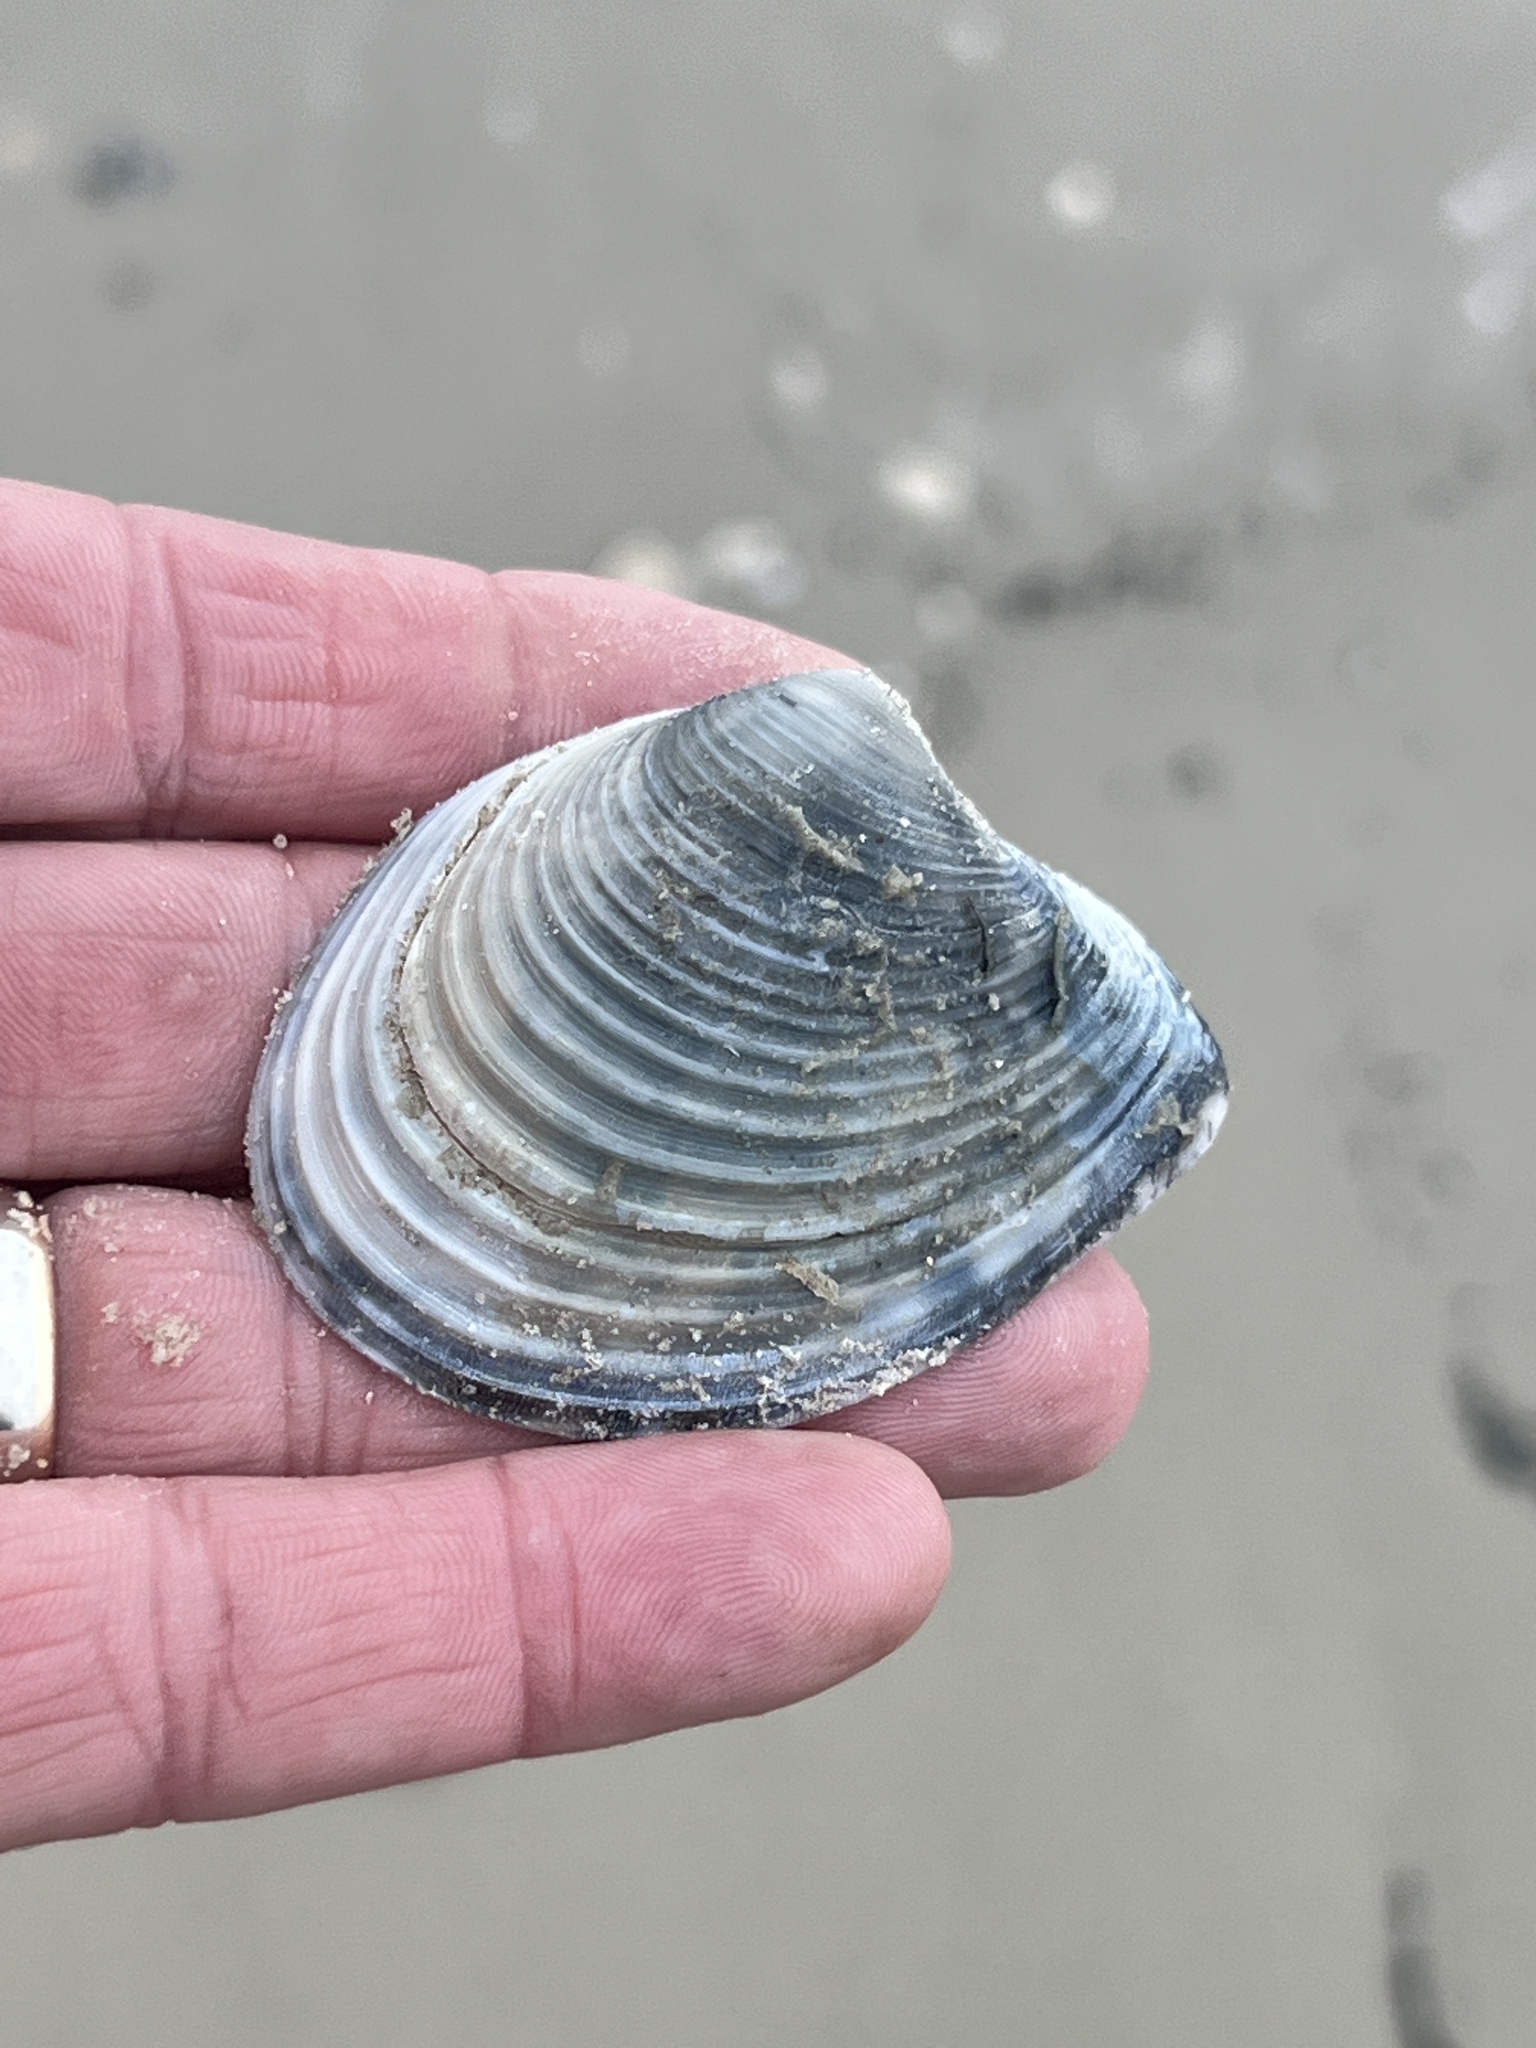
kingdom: Animalia
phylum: Mollusca
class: Bivalvia
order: Venerida
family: Anatinellidae
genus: Raeta
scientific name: Raeta plicatella
